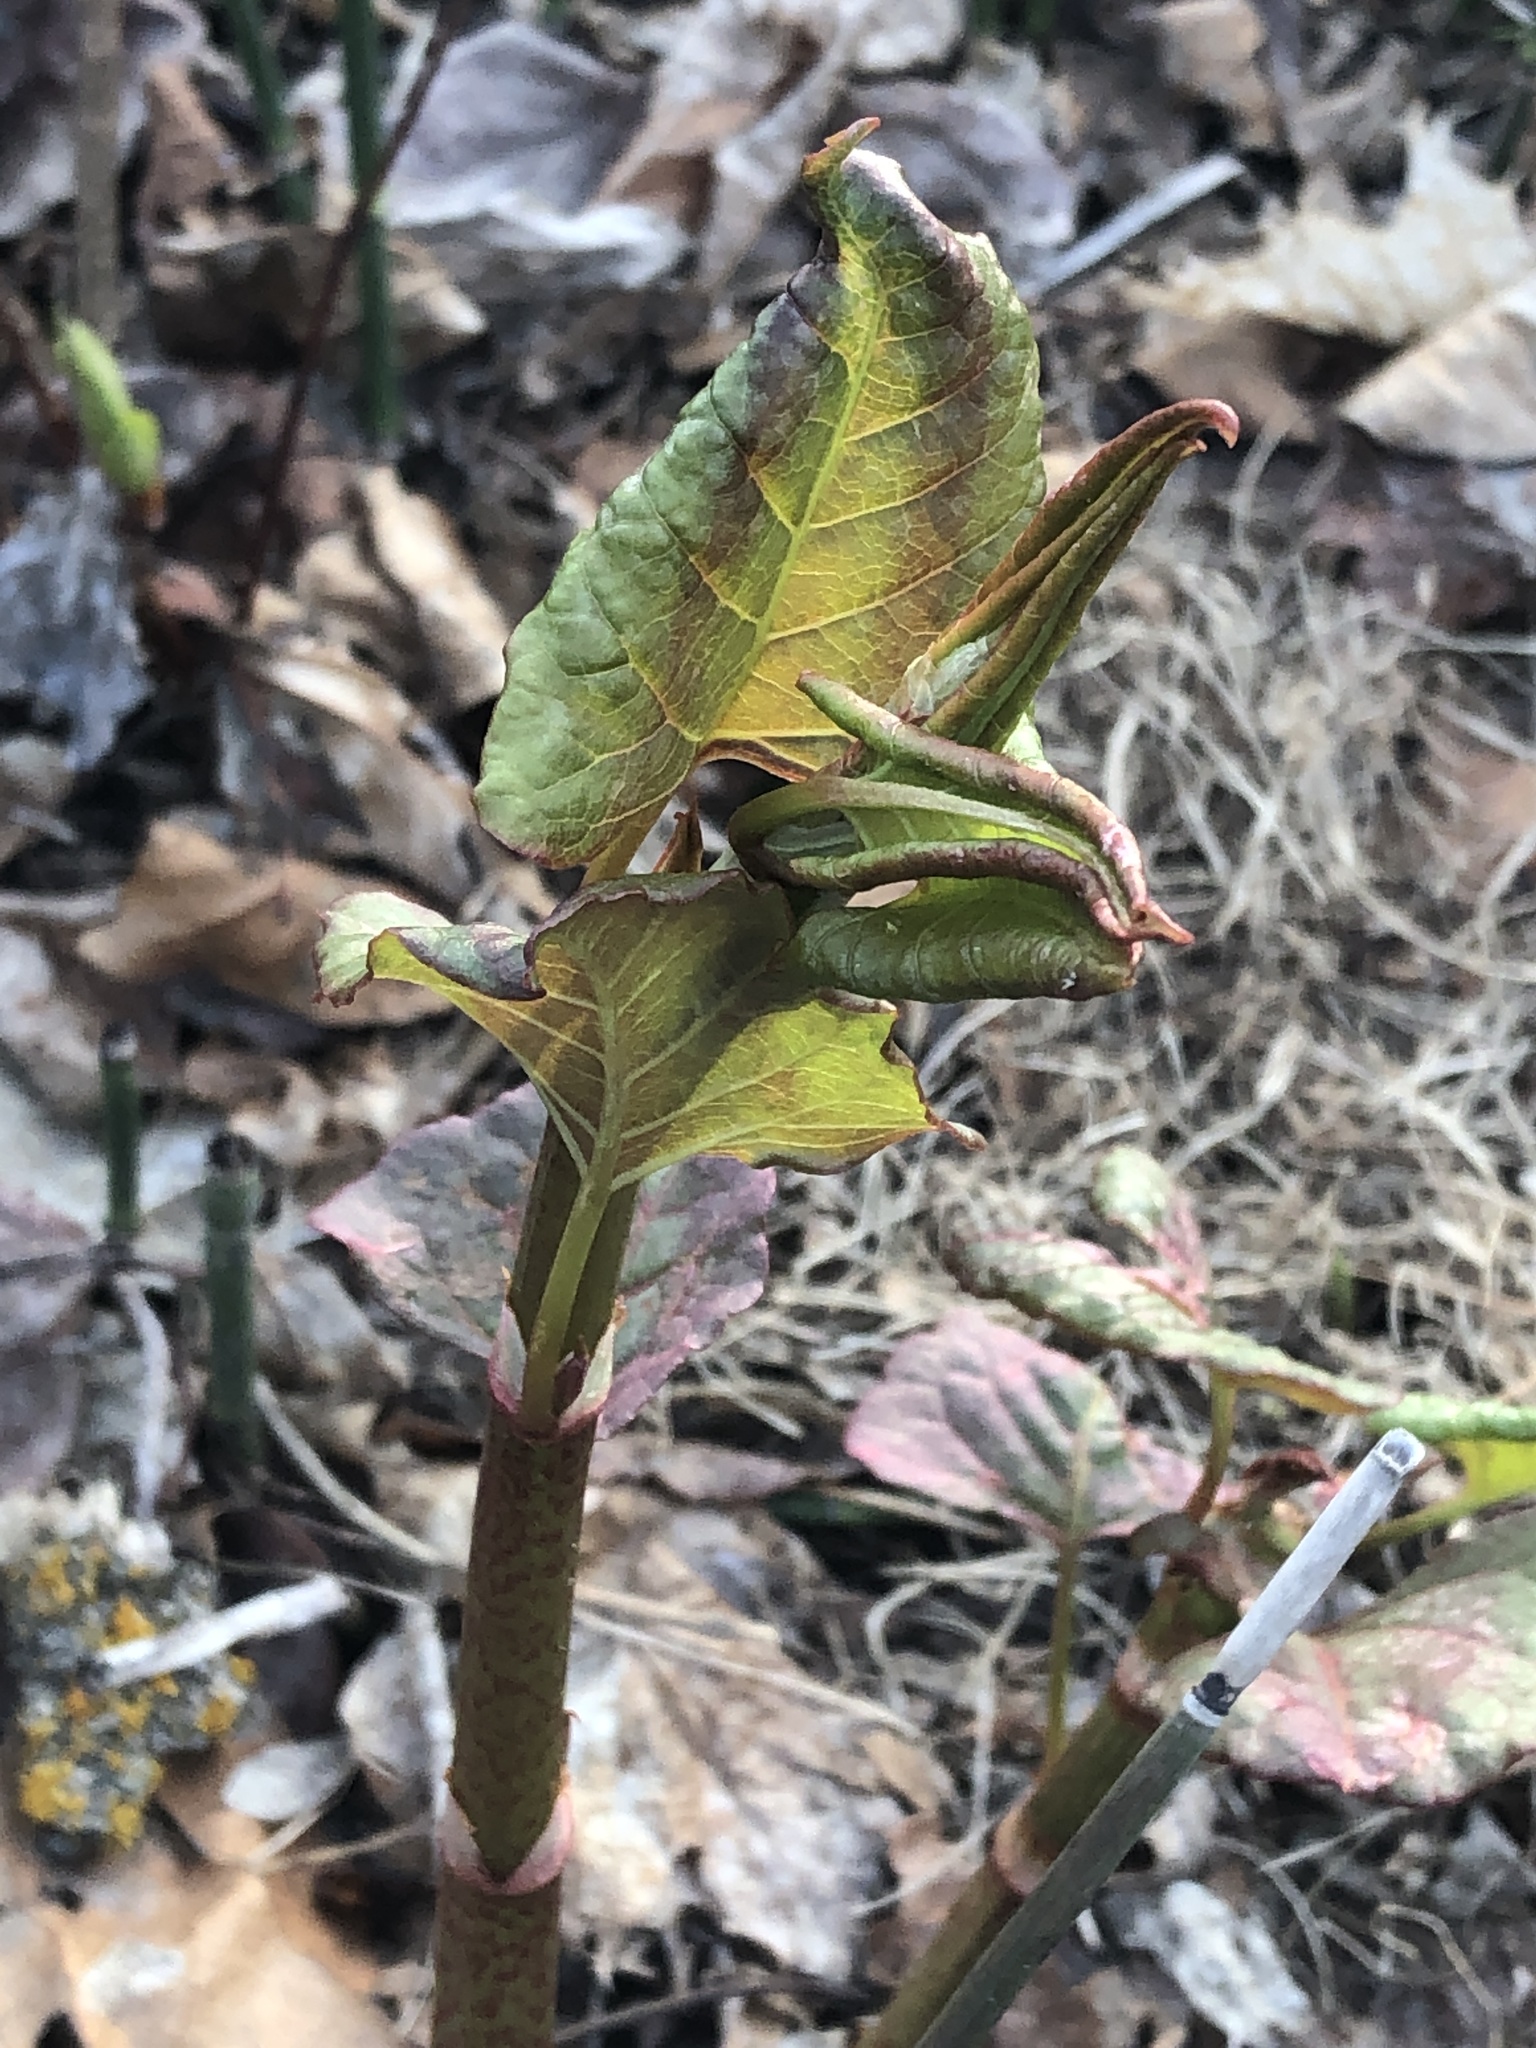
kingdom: Plantae
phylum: Tracheophyta
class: Magnoliopsida
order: Caryophyllales
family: Polygonaceae
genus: Reynoutria
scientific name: Reynoutria japonica
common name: Japanese knotweed
